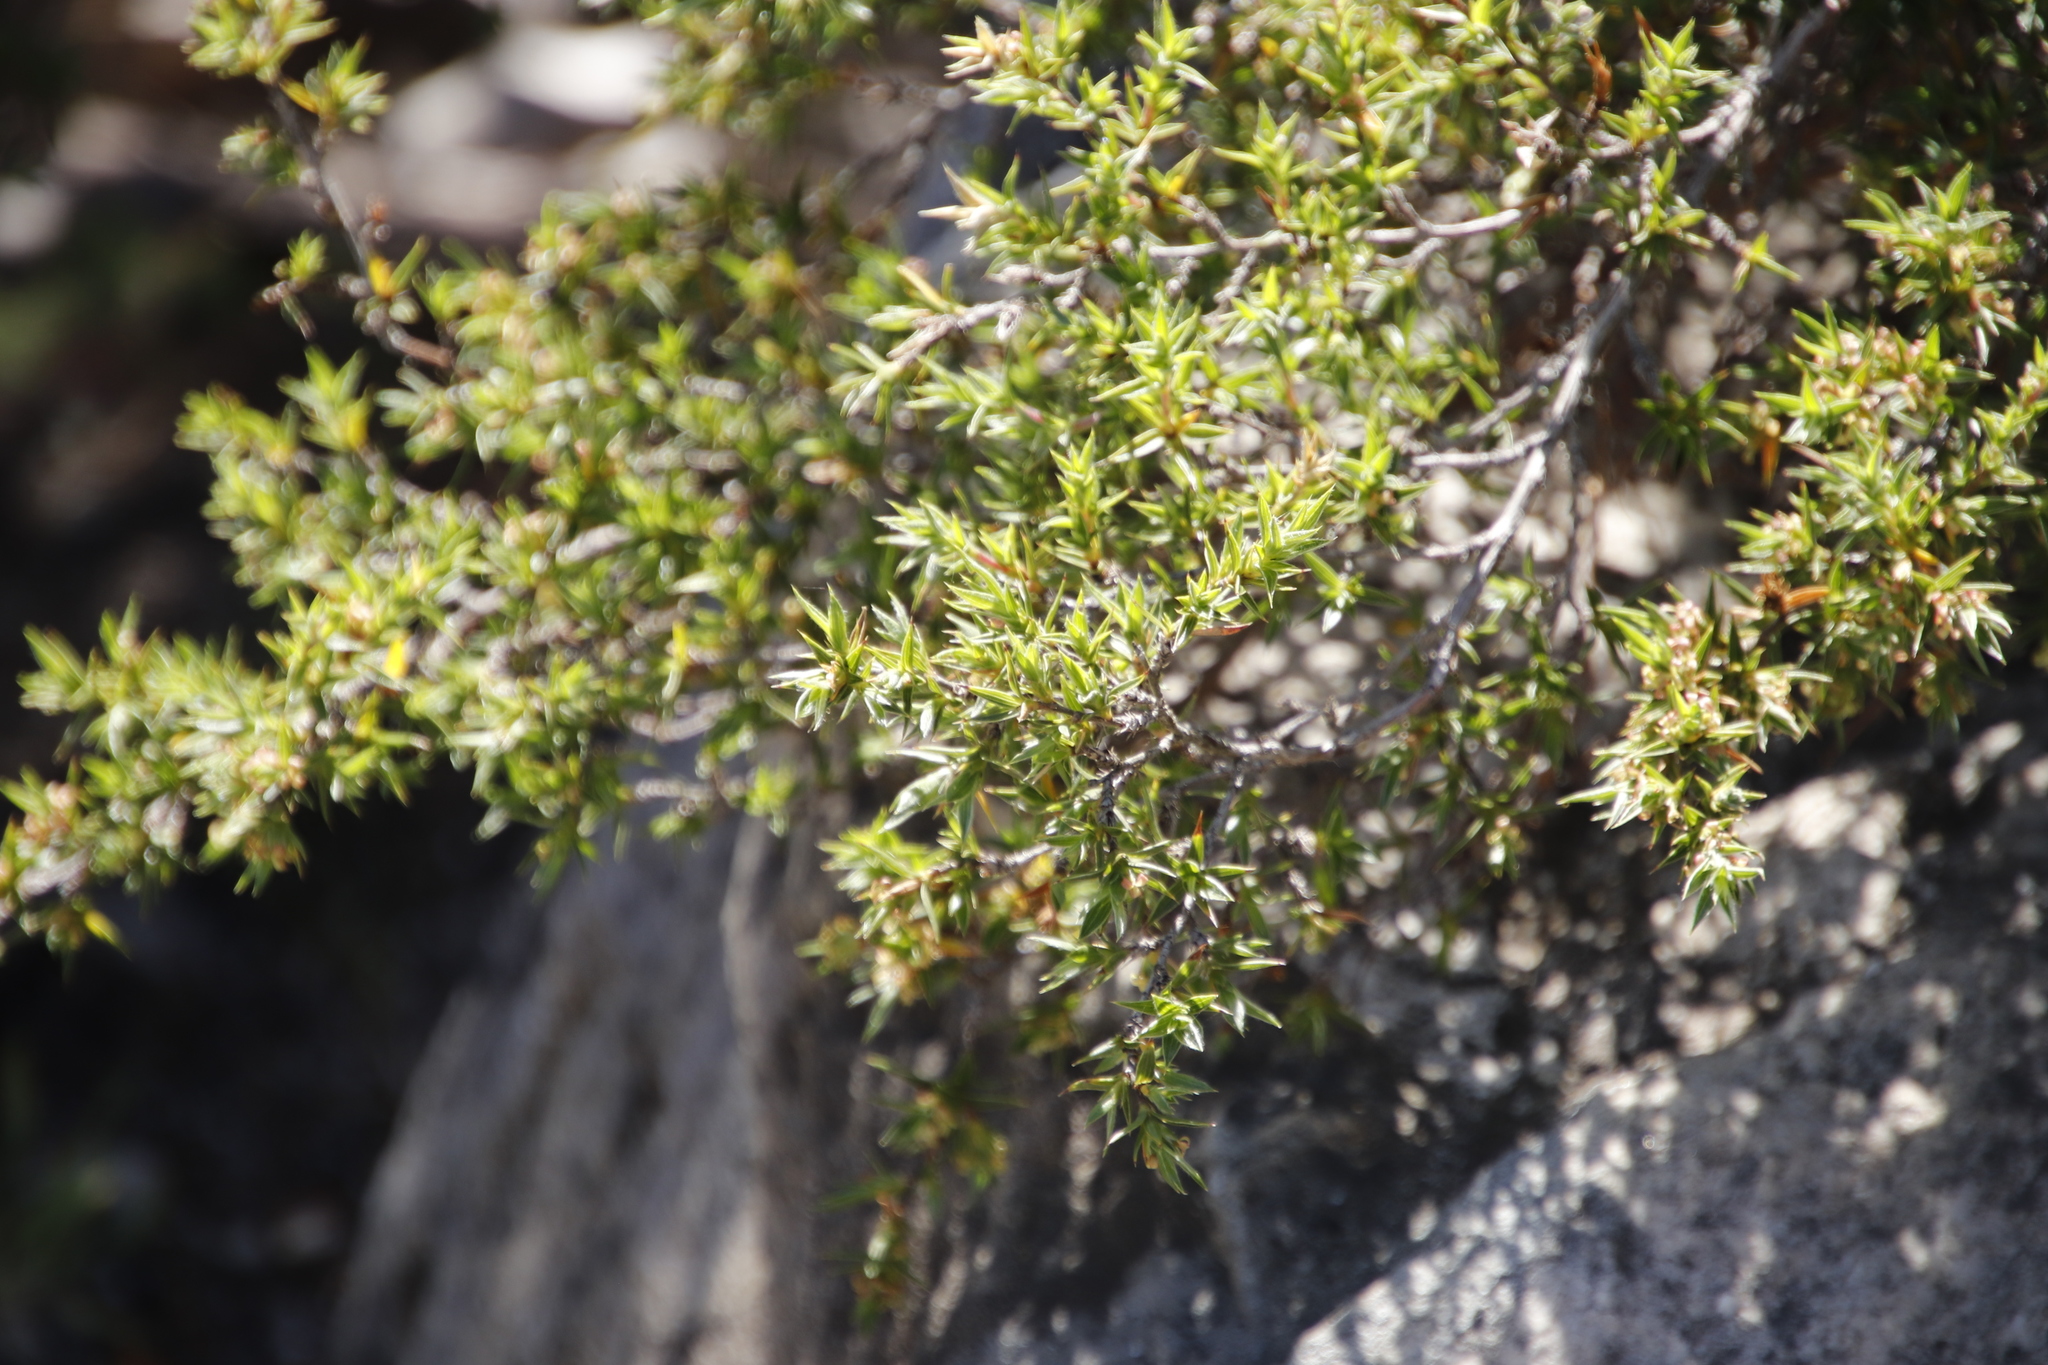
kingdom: Plantae
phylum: Tracheophyta
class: Magnoliopsida
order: Rosales
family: Rosaceae
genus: Cliffortia
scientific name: Cliffortia ruscifolia
